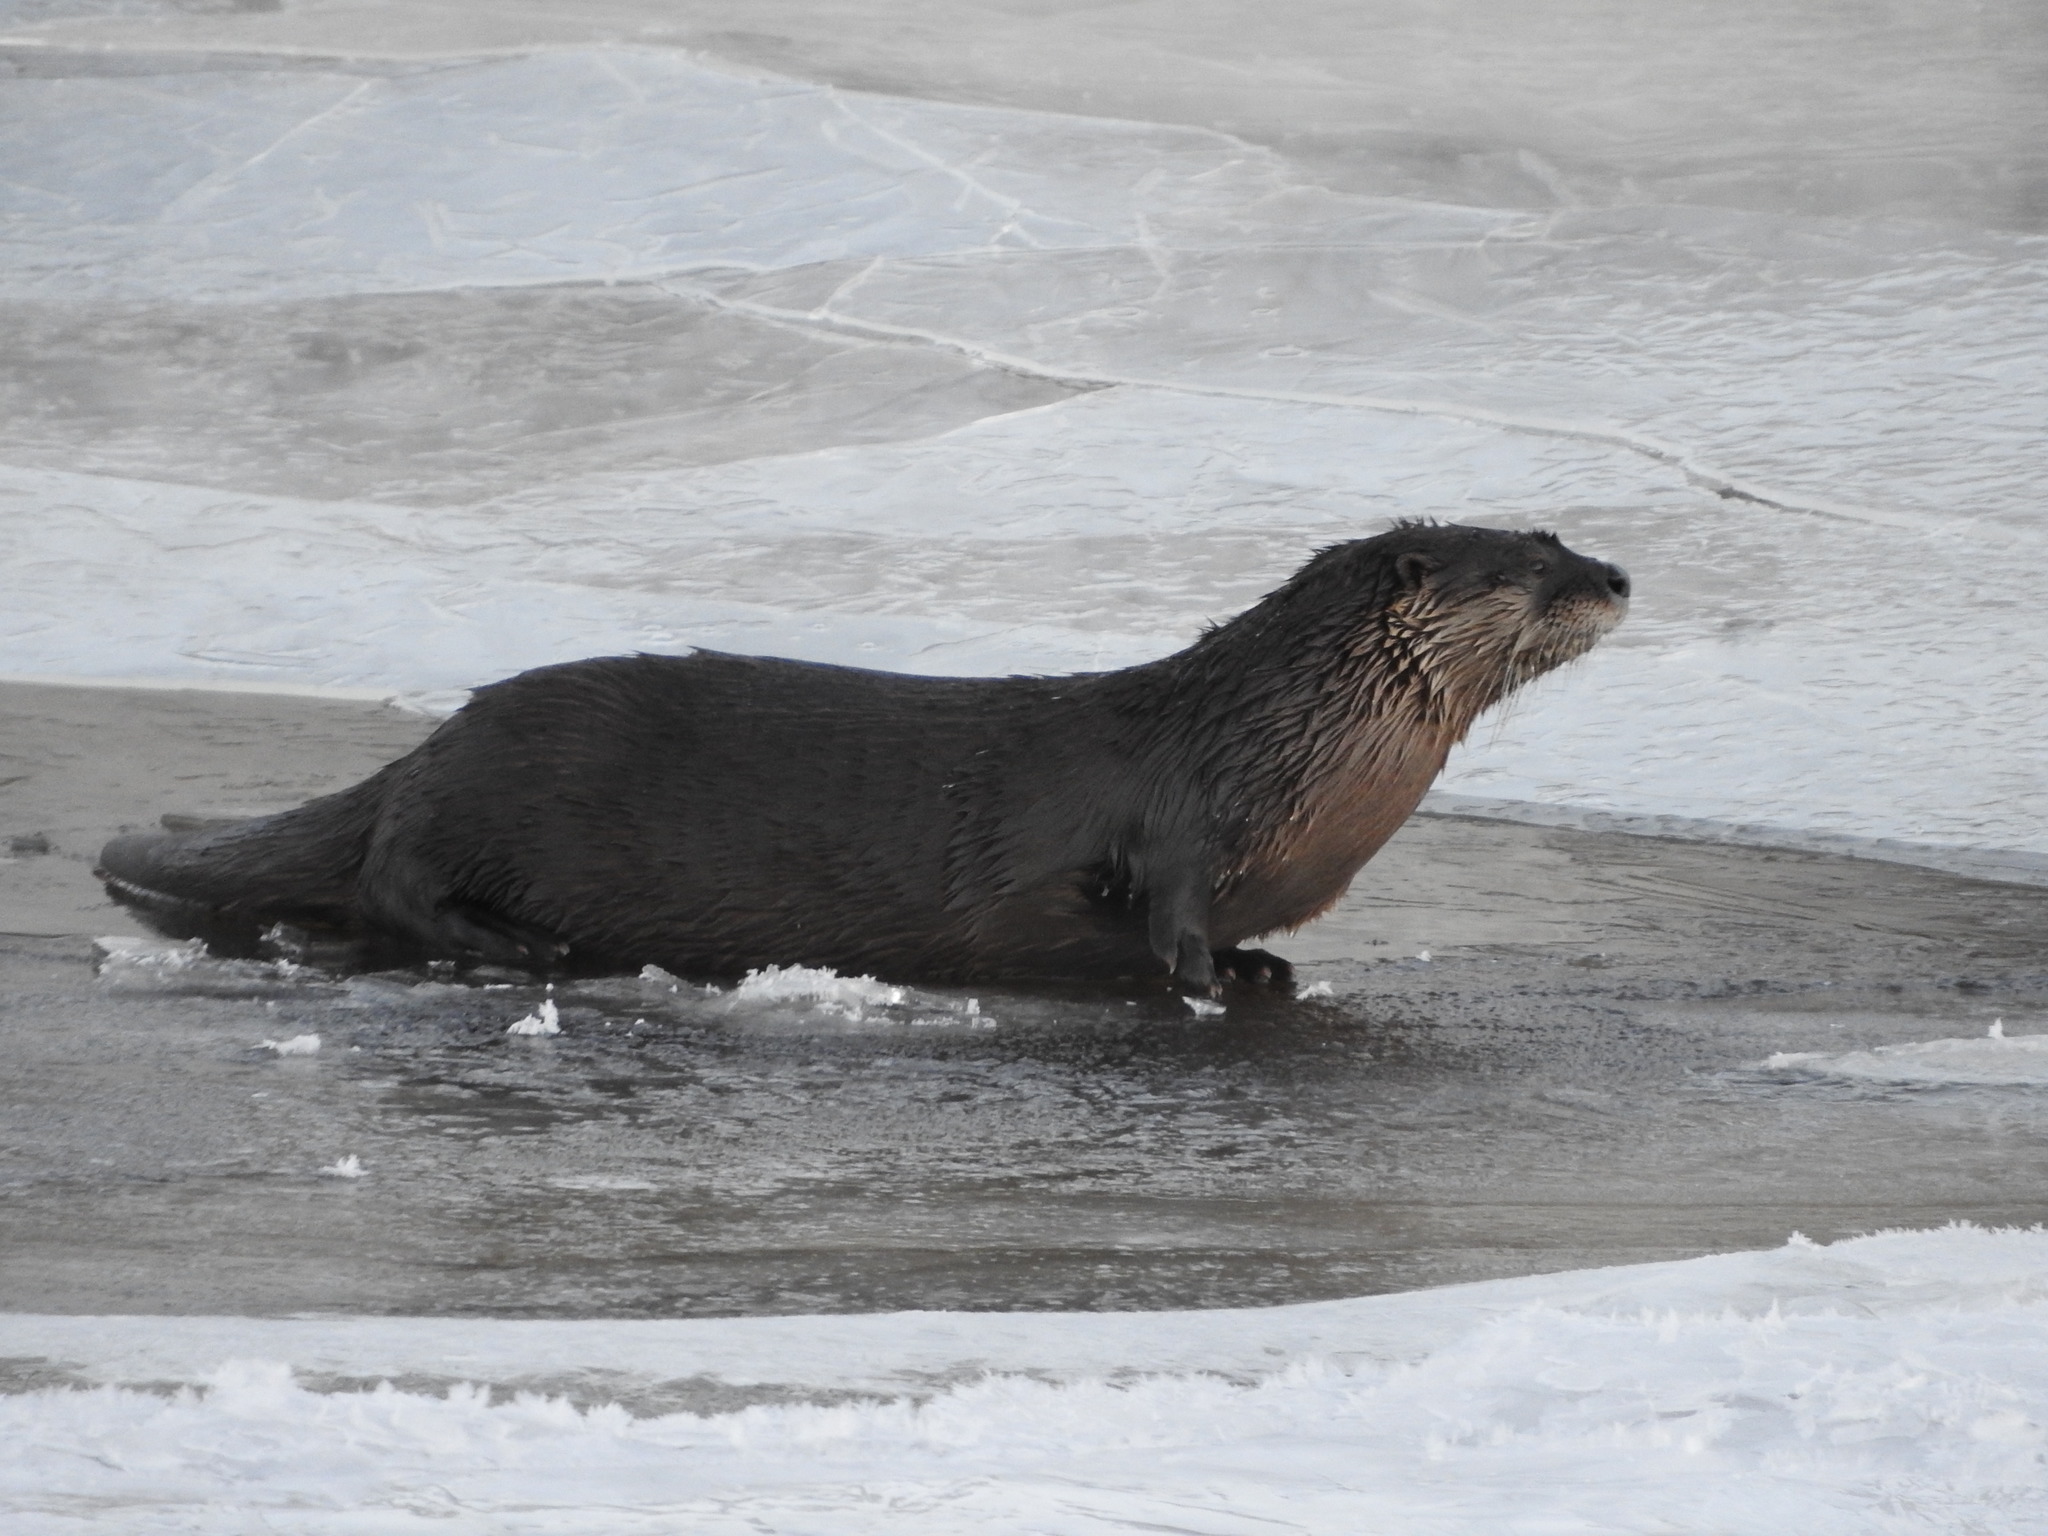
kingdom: Animalia
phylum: Chordata
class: Mammalia
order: Carnivora
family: Mustelidae
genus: Lontra
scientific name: Lontra canadensis
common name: North american river otter
